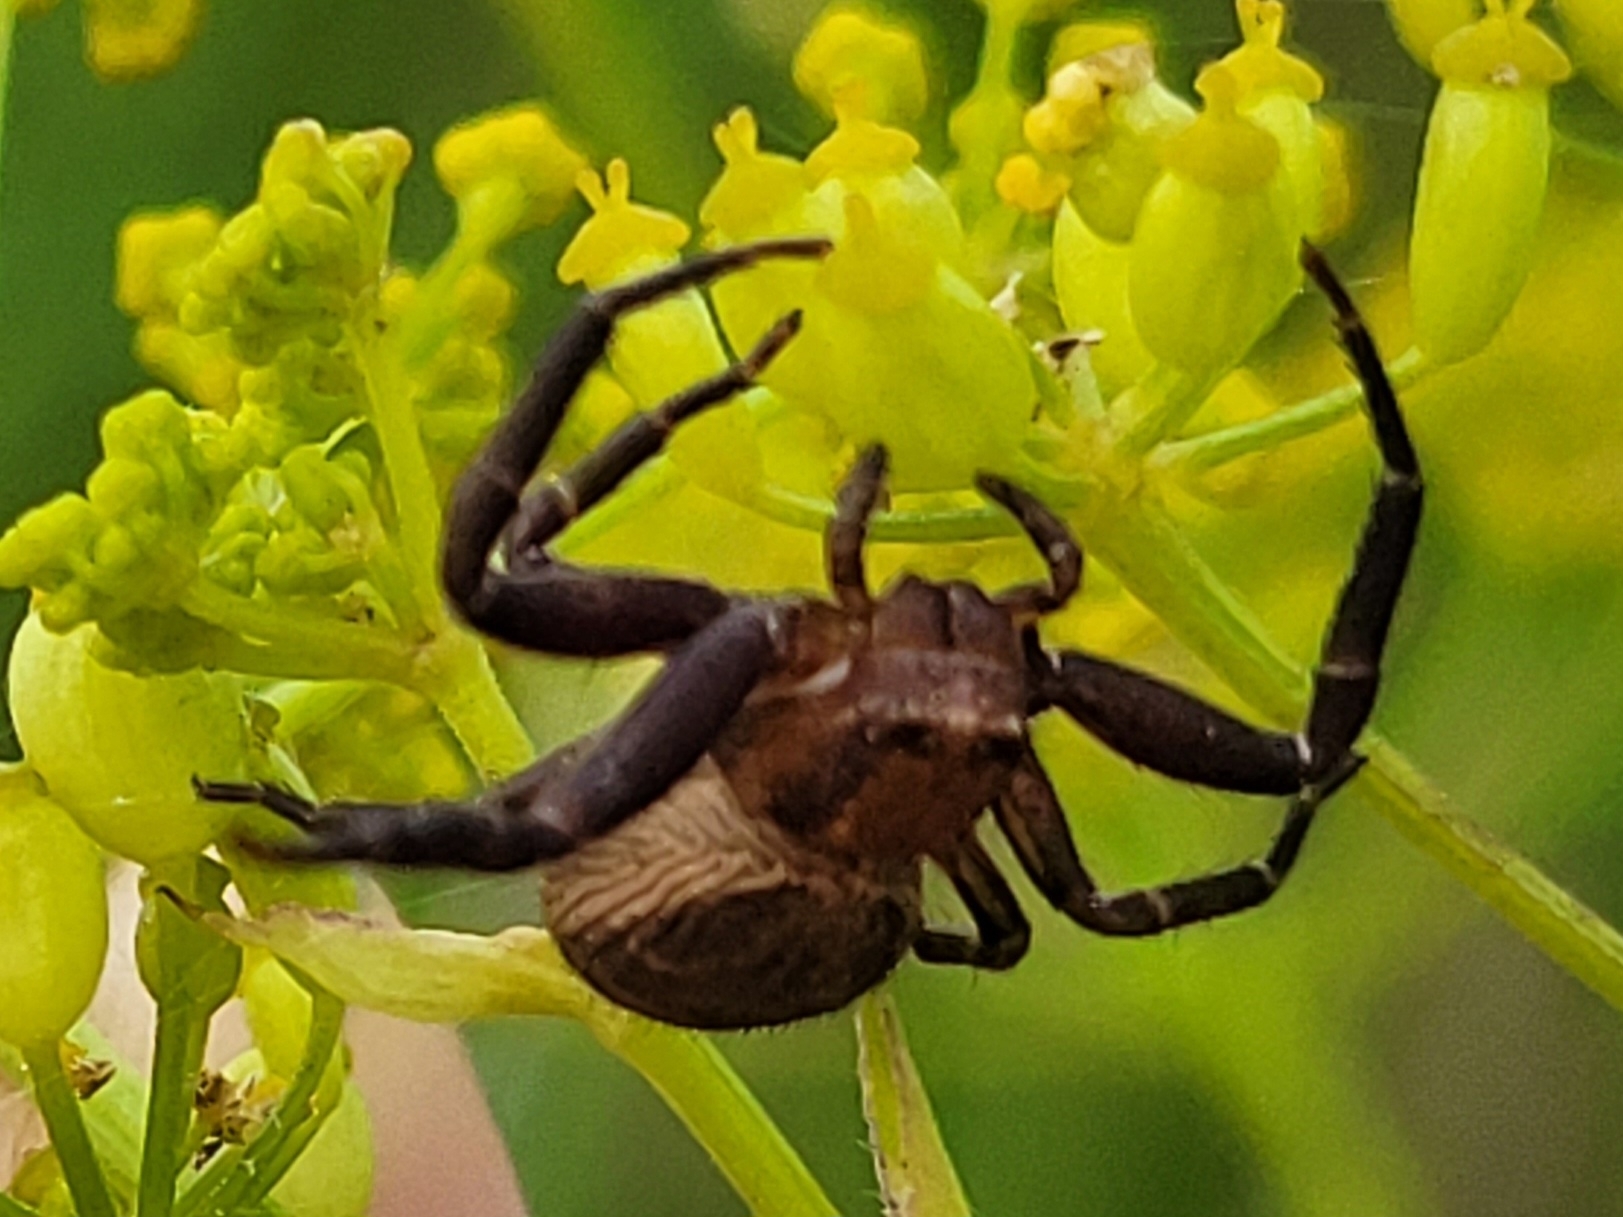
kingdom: Animalia
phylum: Arthropoda
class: Arachnida
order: Araneae
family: Thomisidae
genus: Xysticus
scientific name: Xysticus bifasciatus
